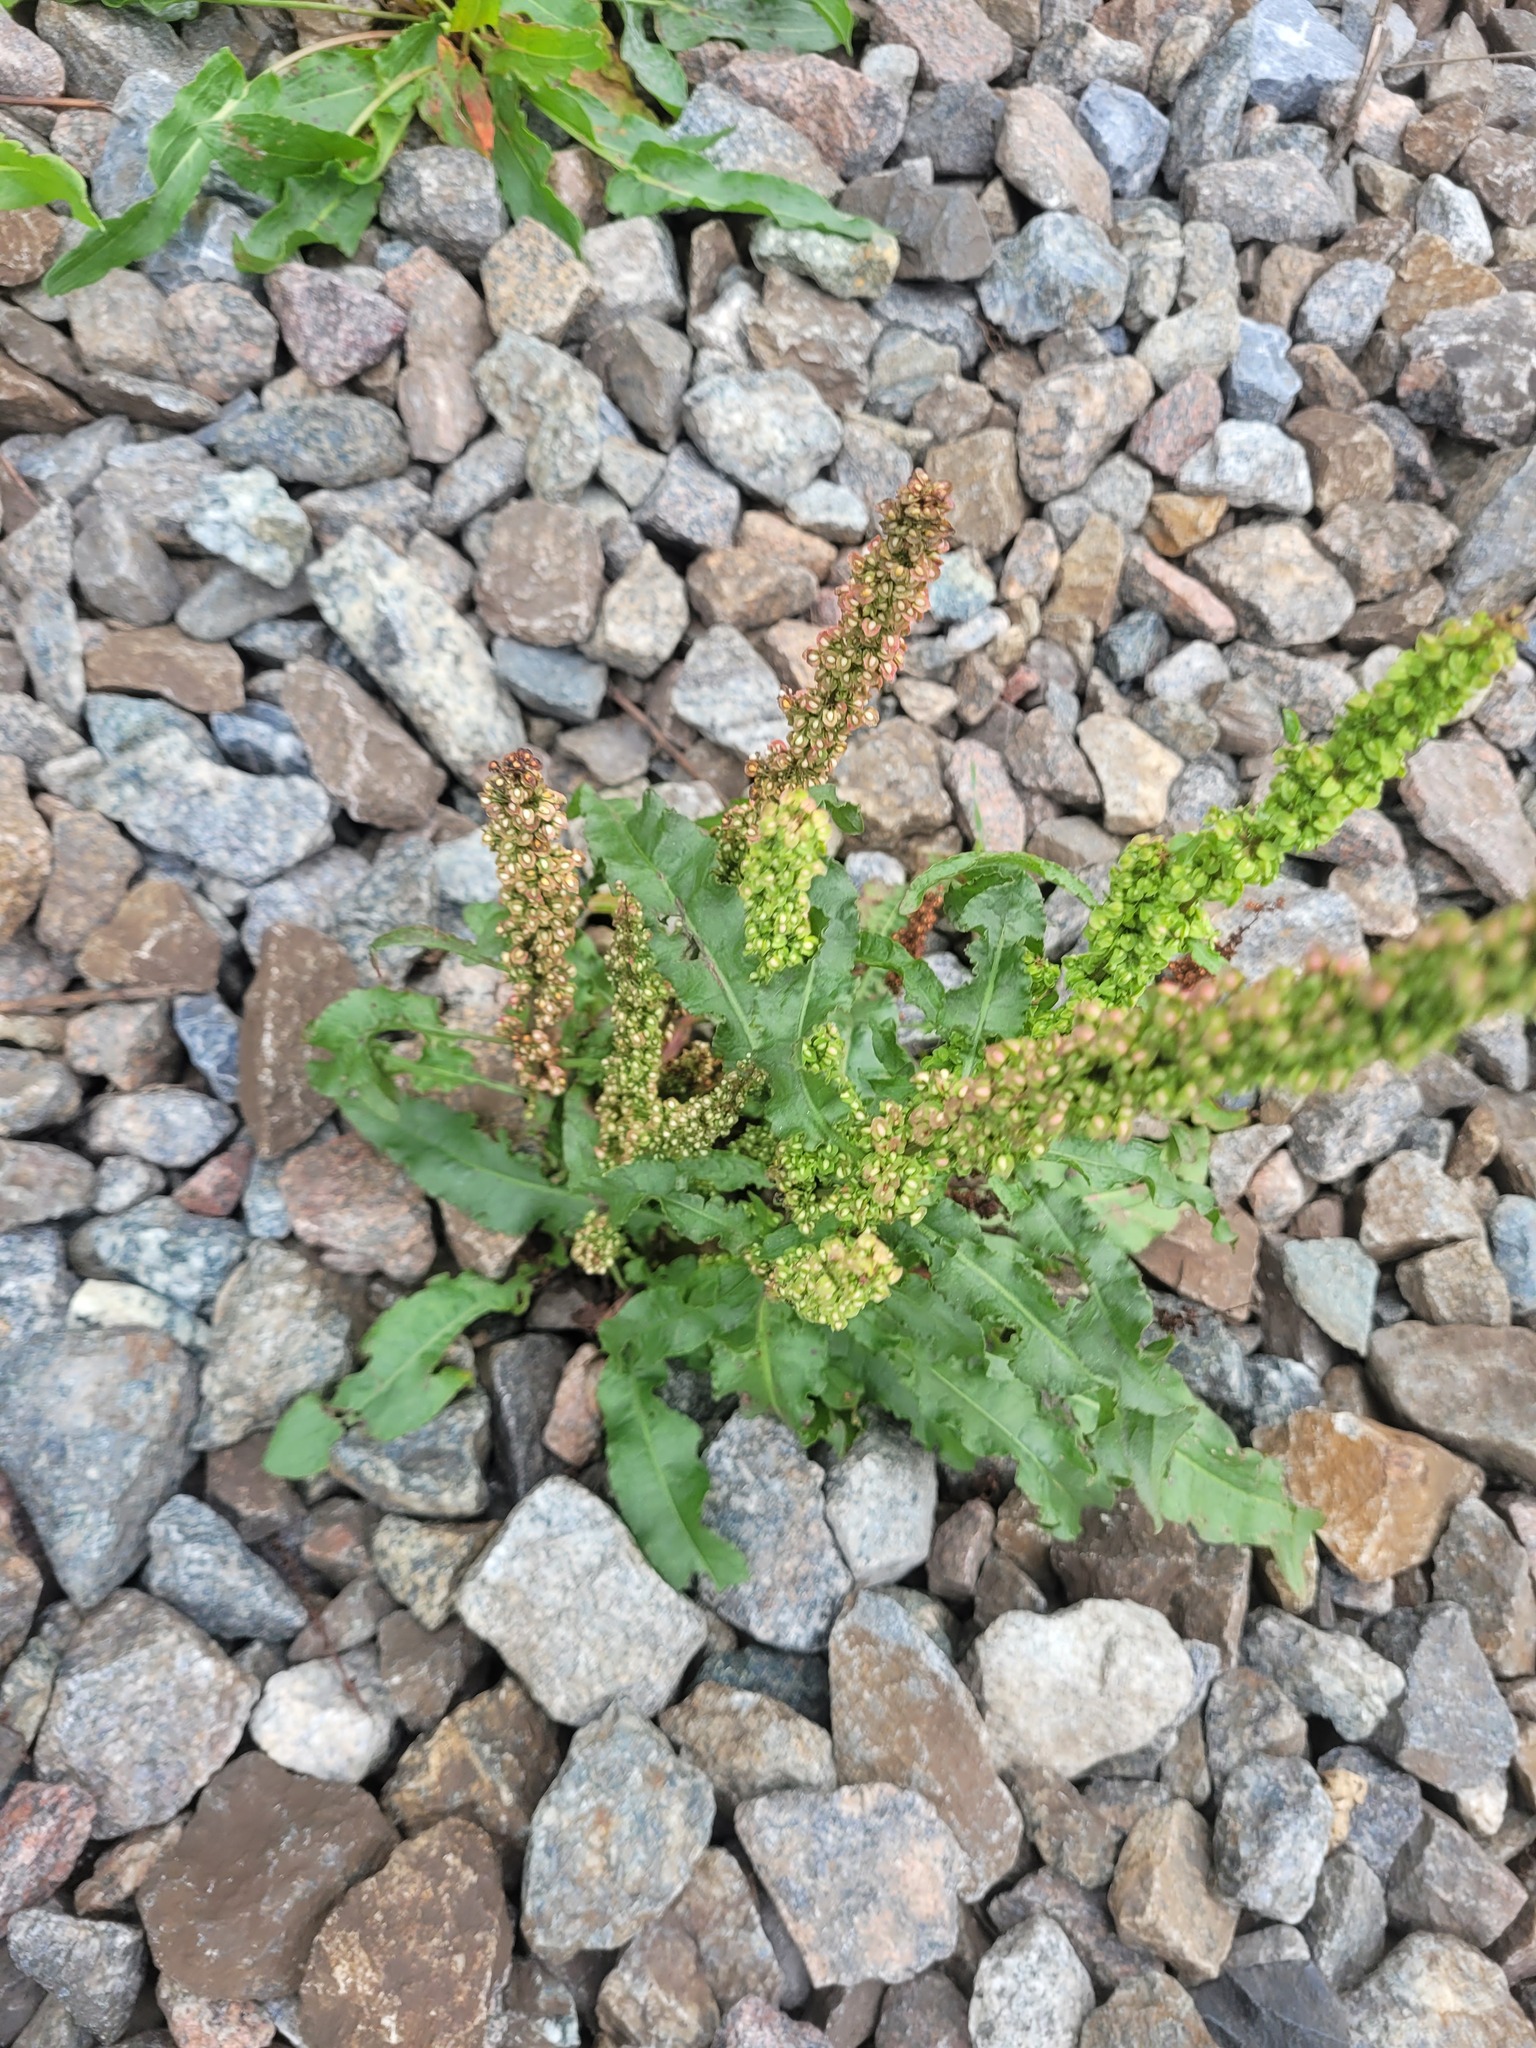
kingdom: Plantae
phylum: Tracheophyta
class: Magnoliopsida
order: Caryophyllales
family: Polygonaceae
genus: Rumex
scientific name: Rumex crispus
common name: Curled dock
